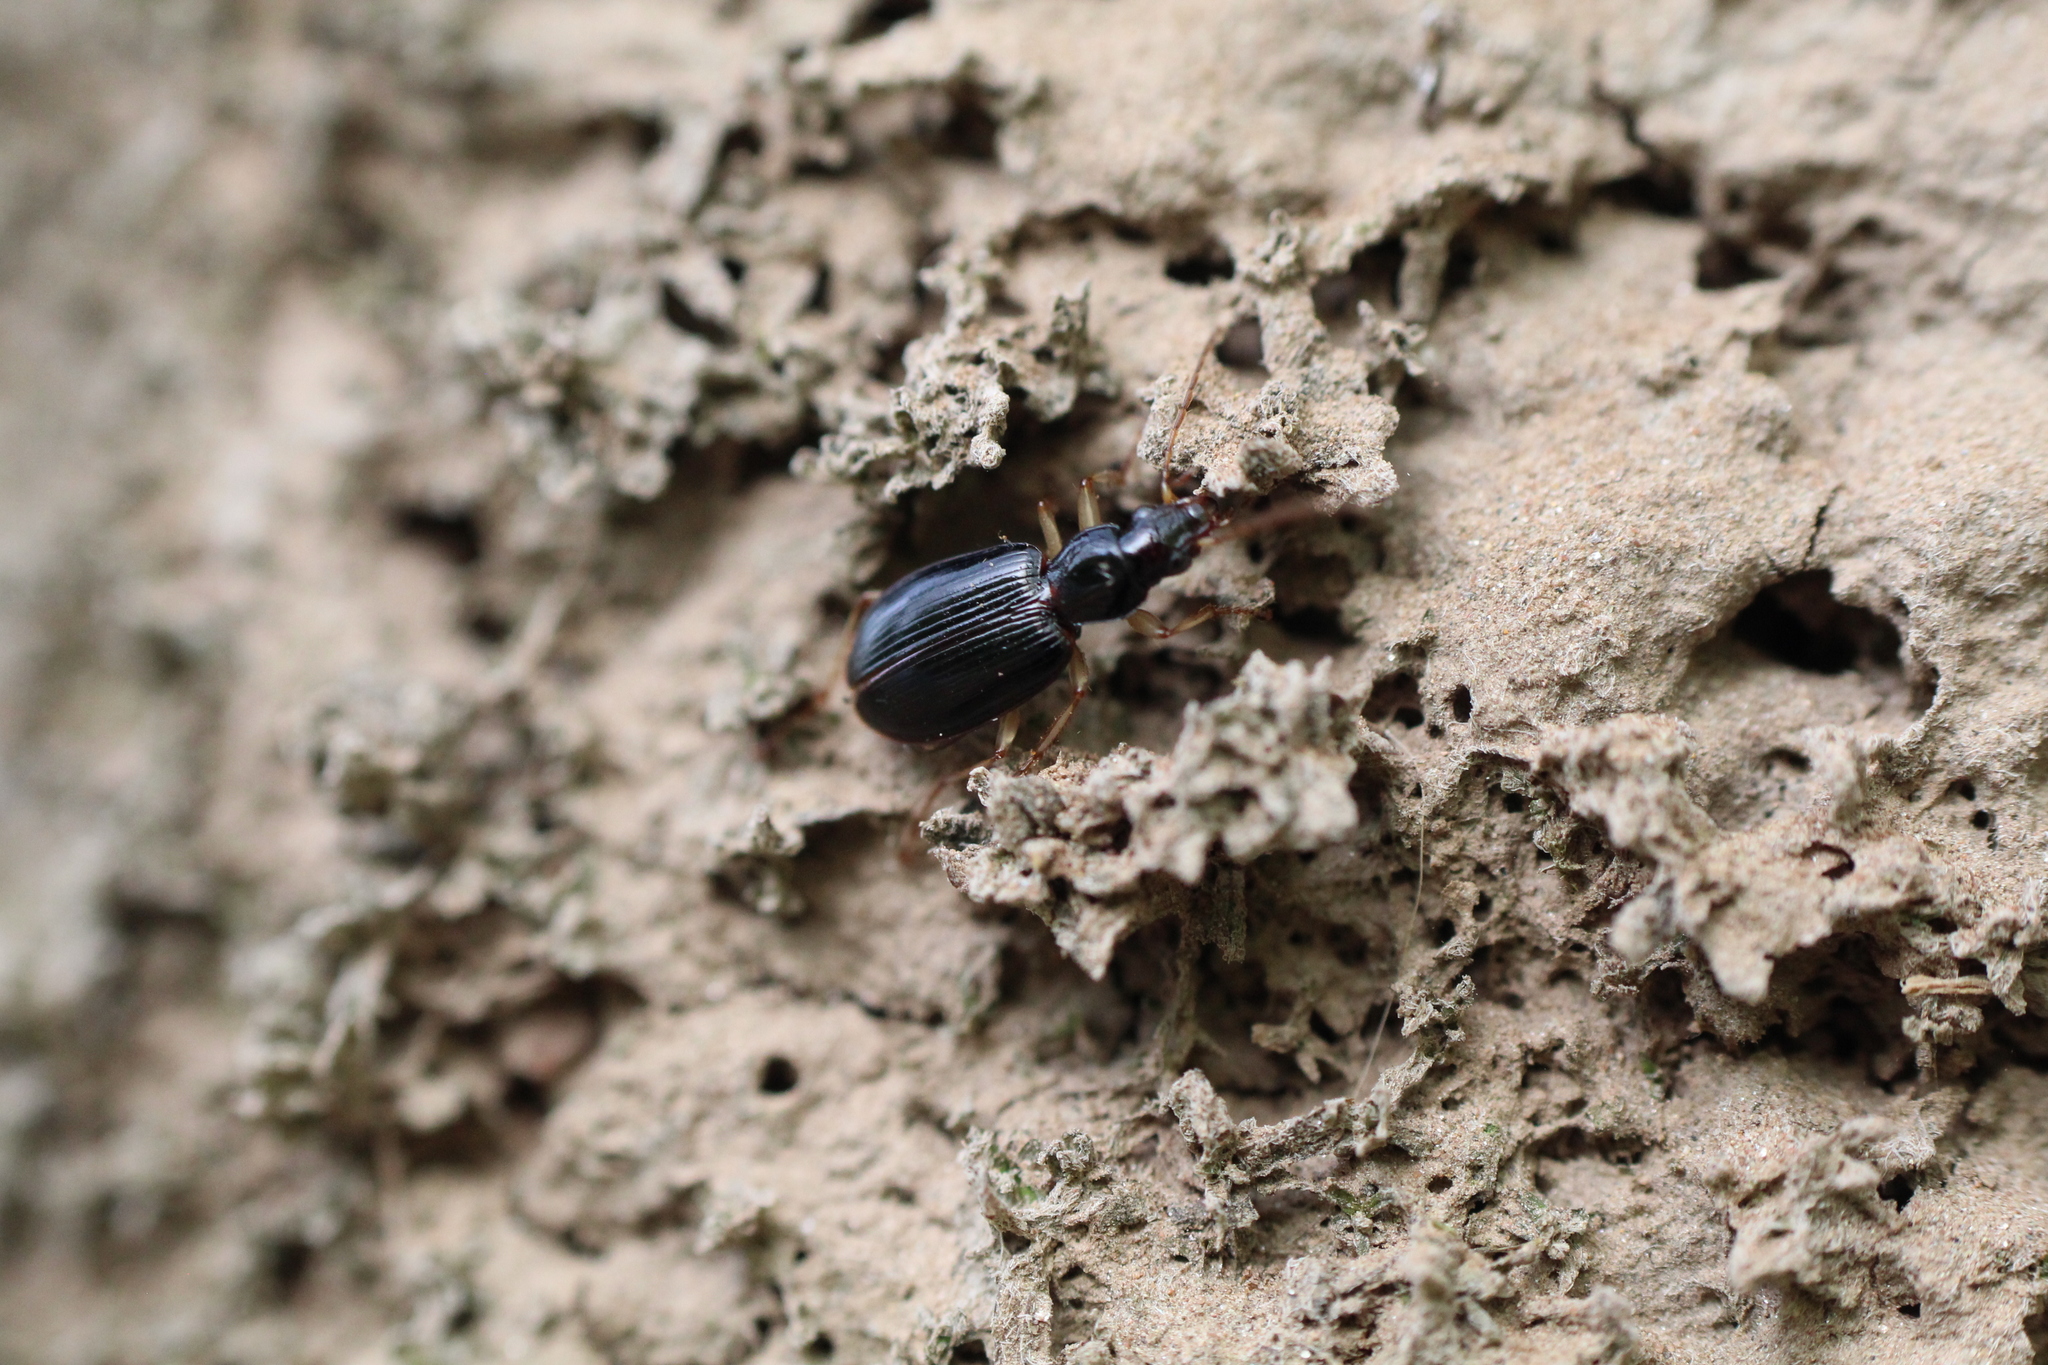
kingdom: Animalia
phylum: Arthropoda
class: Insecta
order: Coleoptera
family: Carabidae
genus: Paranchus
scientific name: Paranchus albipes
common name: White-legged harp ground beetle
